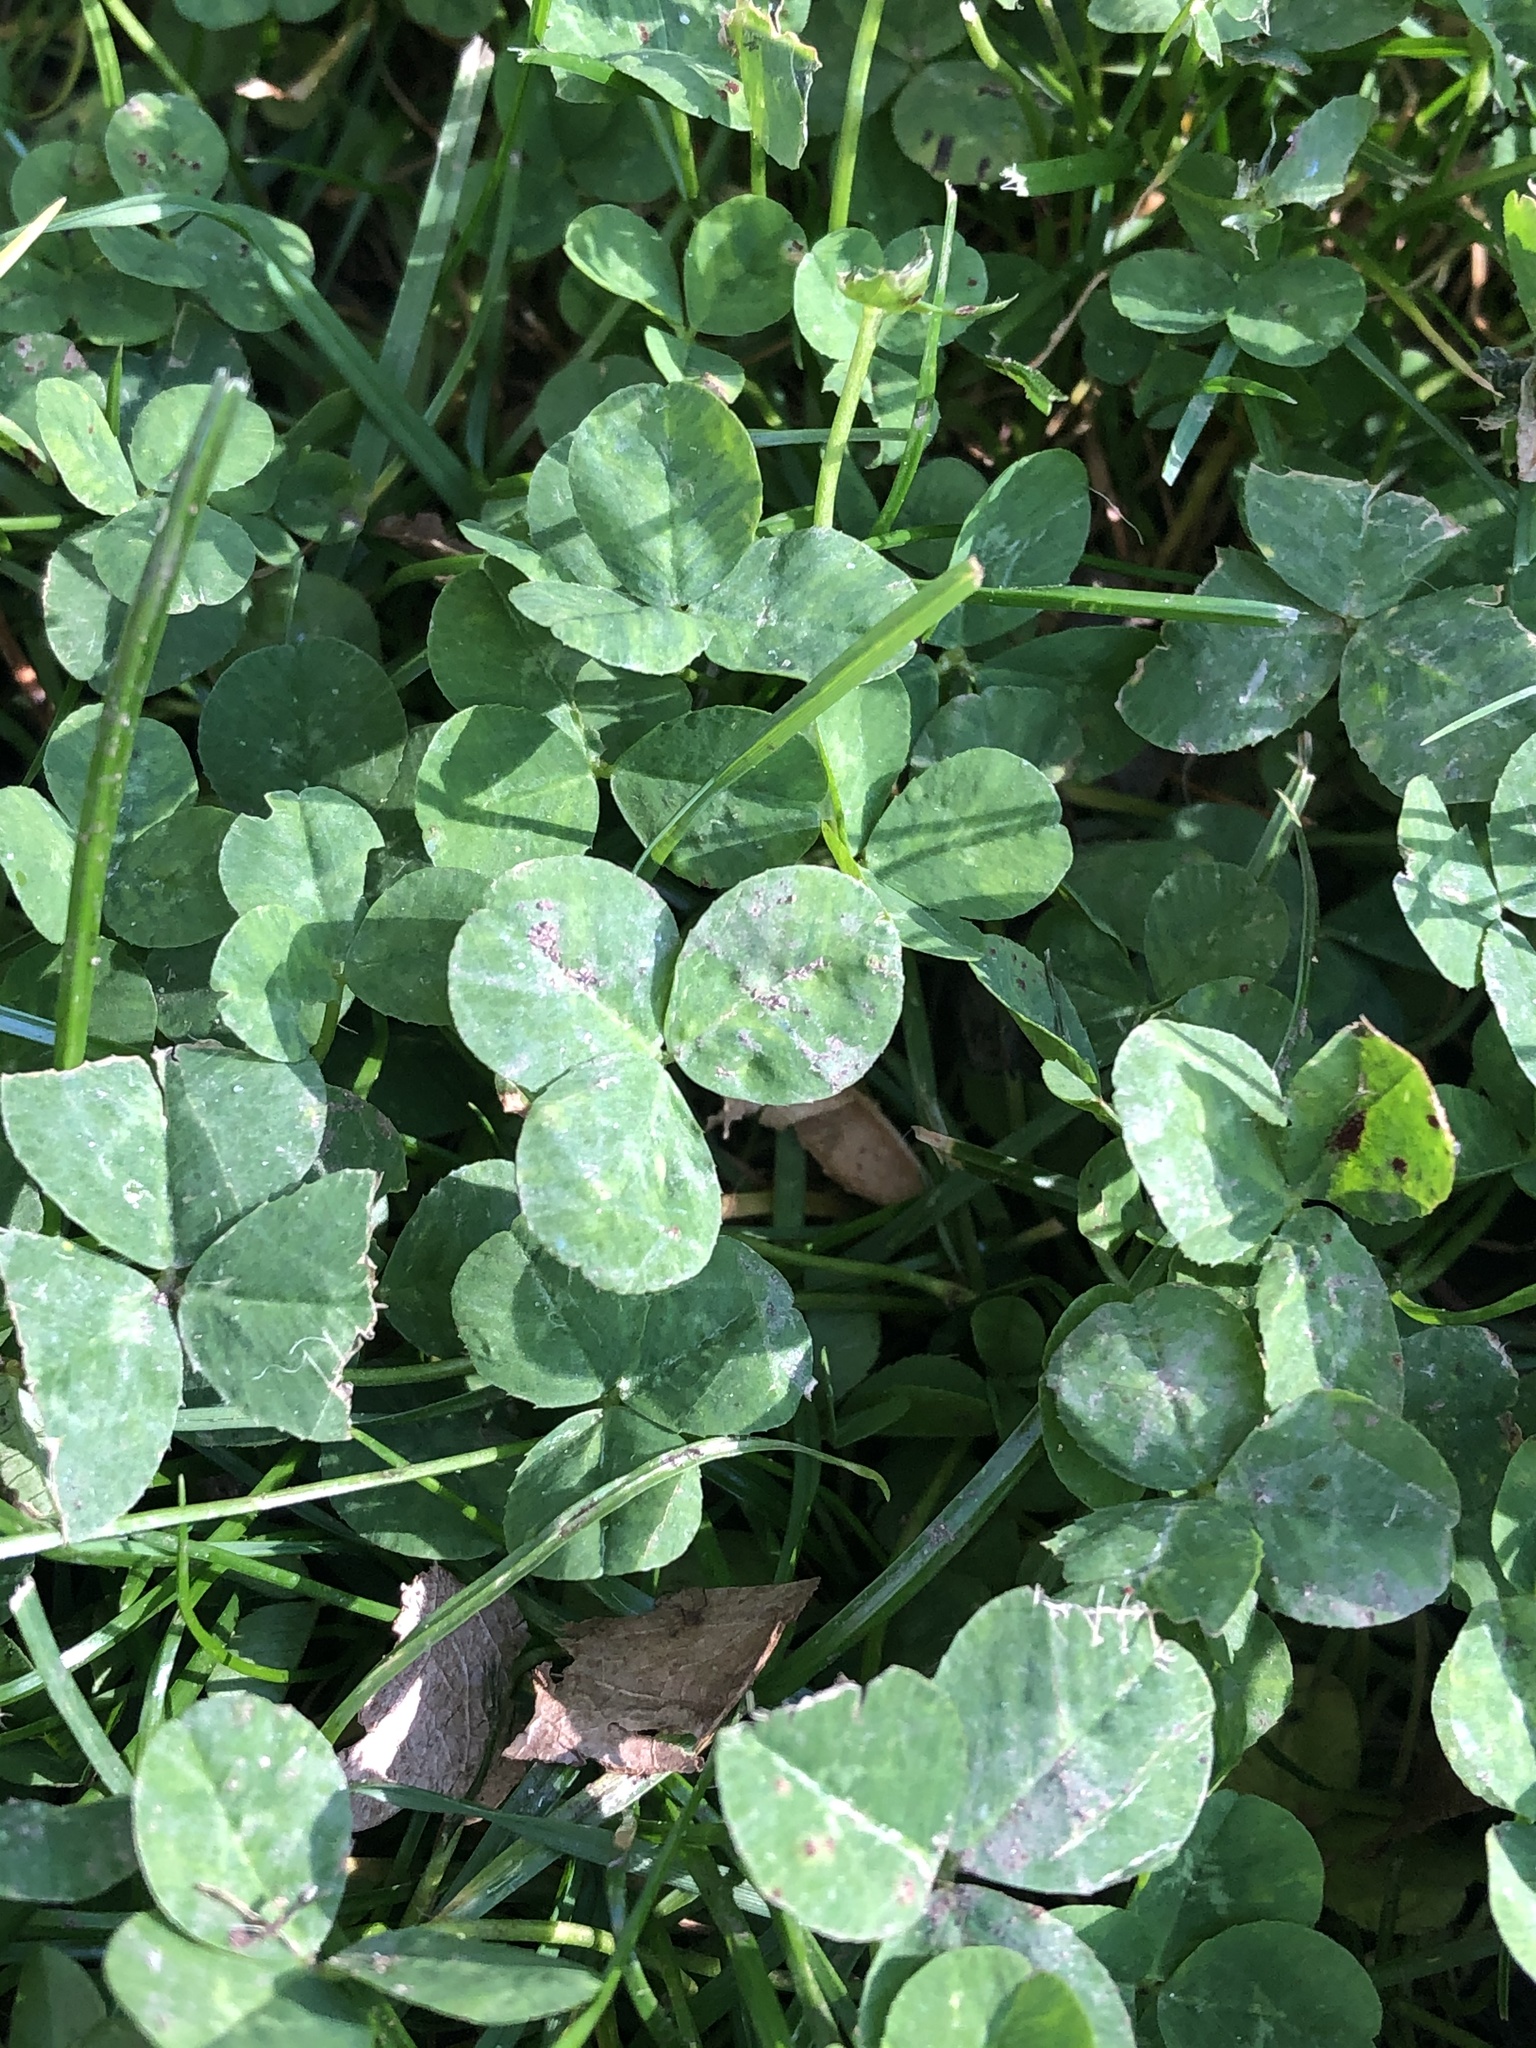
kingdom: Plantae
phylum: Tracheophyta
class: Magnoliopsida
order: Fabales
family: Fabaceae
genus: Trifolium
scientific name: Trifolium repens
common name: White clover
